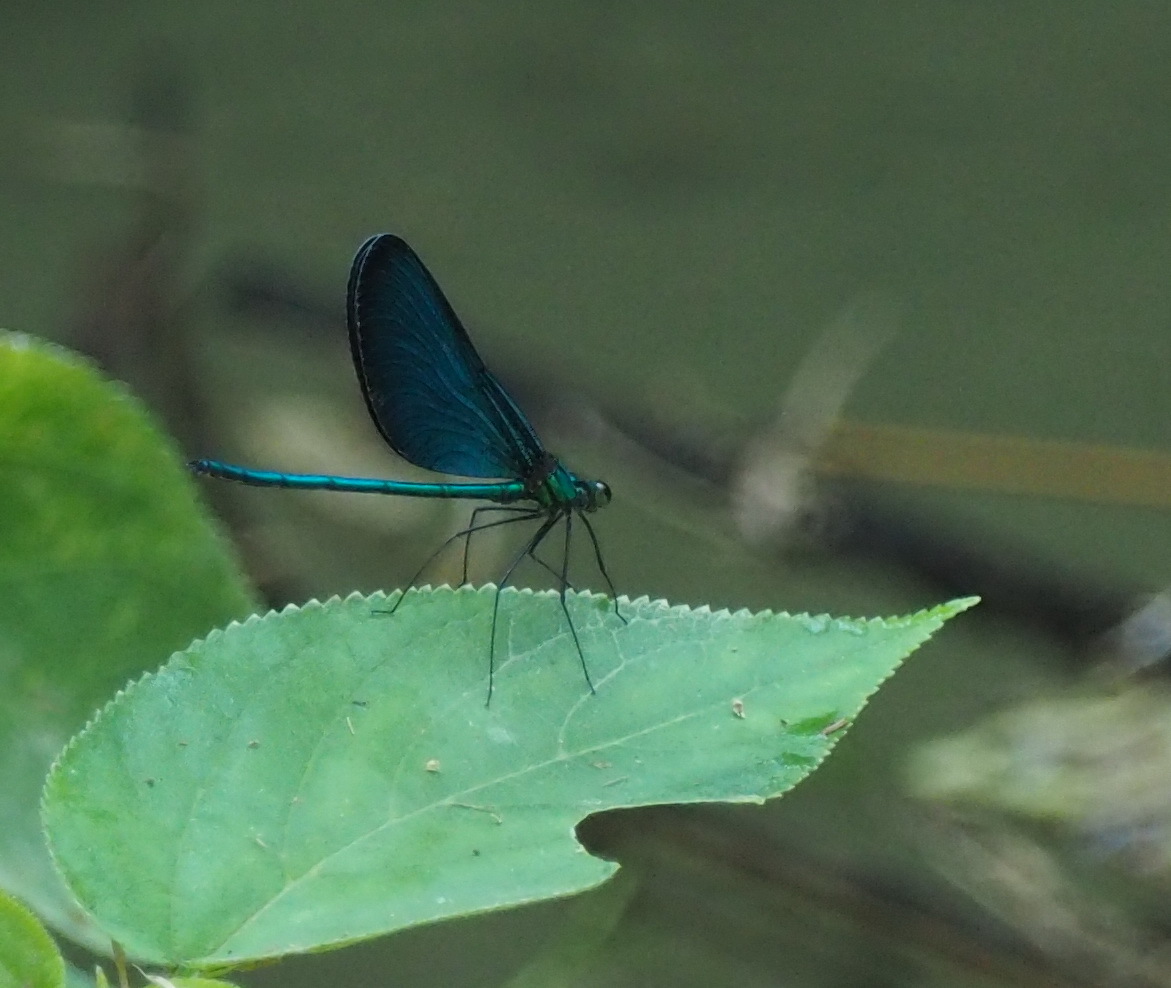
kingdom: Animalia
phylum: Arthropoda
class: Insecta
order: Odonata
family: Calopterygidae
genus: Matrona
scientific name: Matrona cyanoptera
